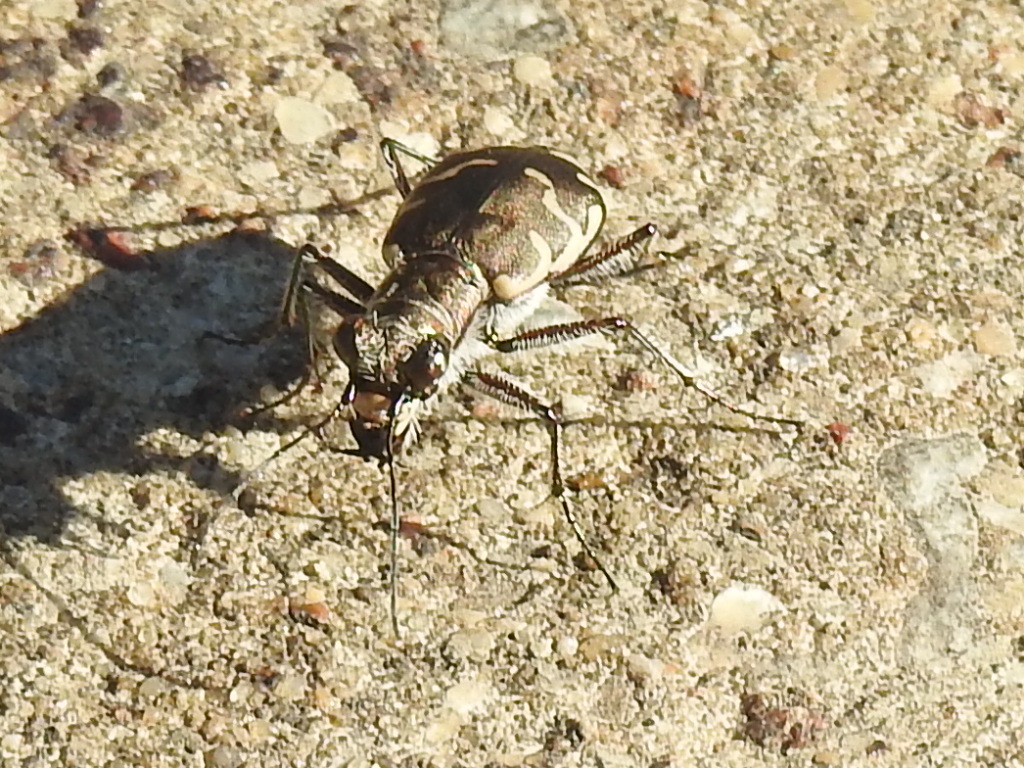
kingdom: Animalia
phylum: Arthropoda
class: Insecta
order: Coleoptera
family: Carabidae
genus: Cicindela
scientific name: Cicindela repanda
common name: Bronzed tiger beetle
